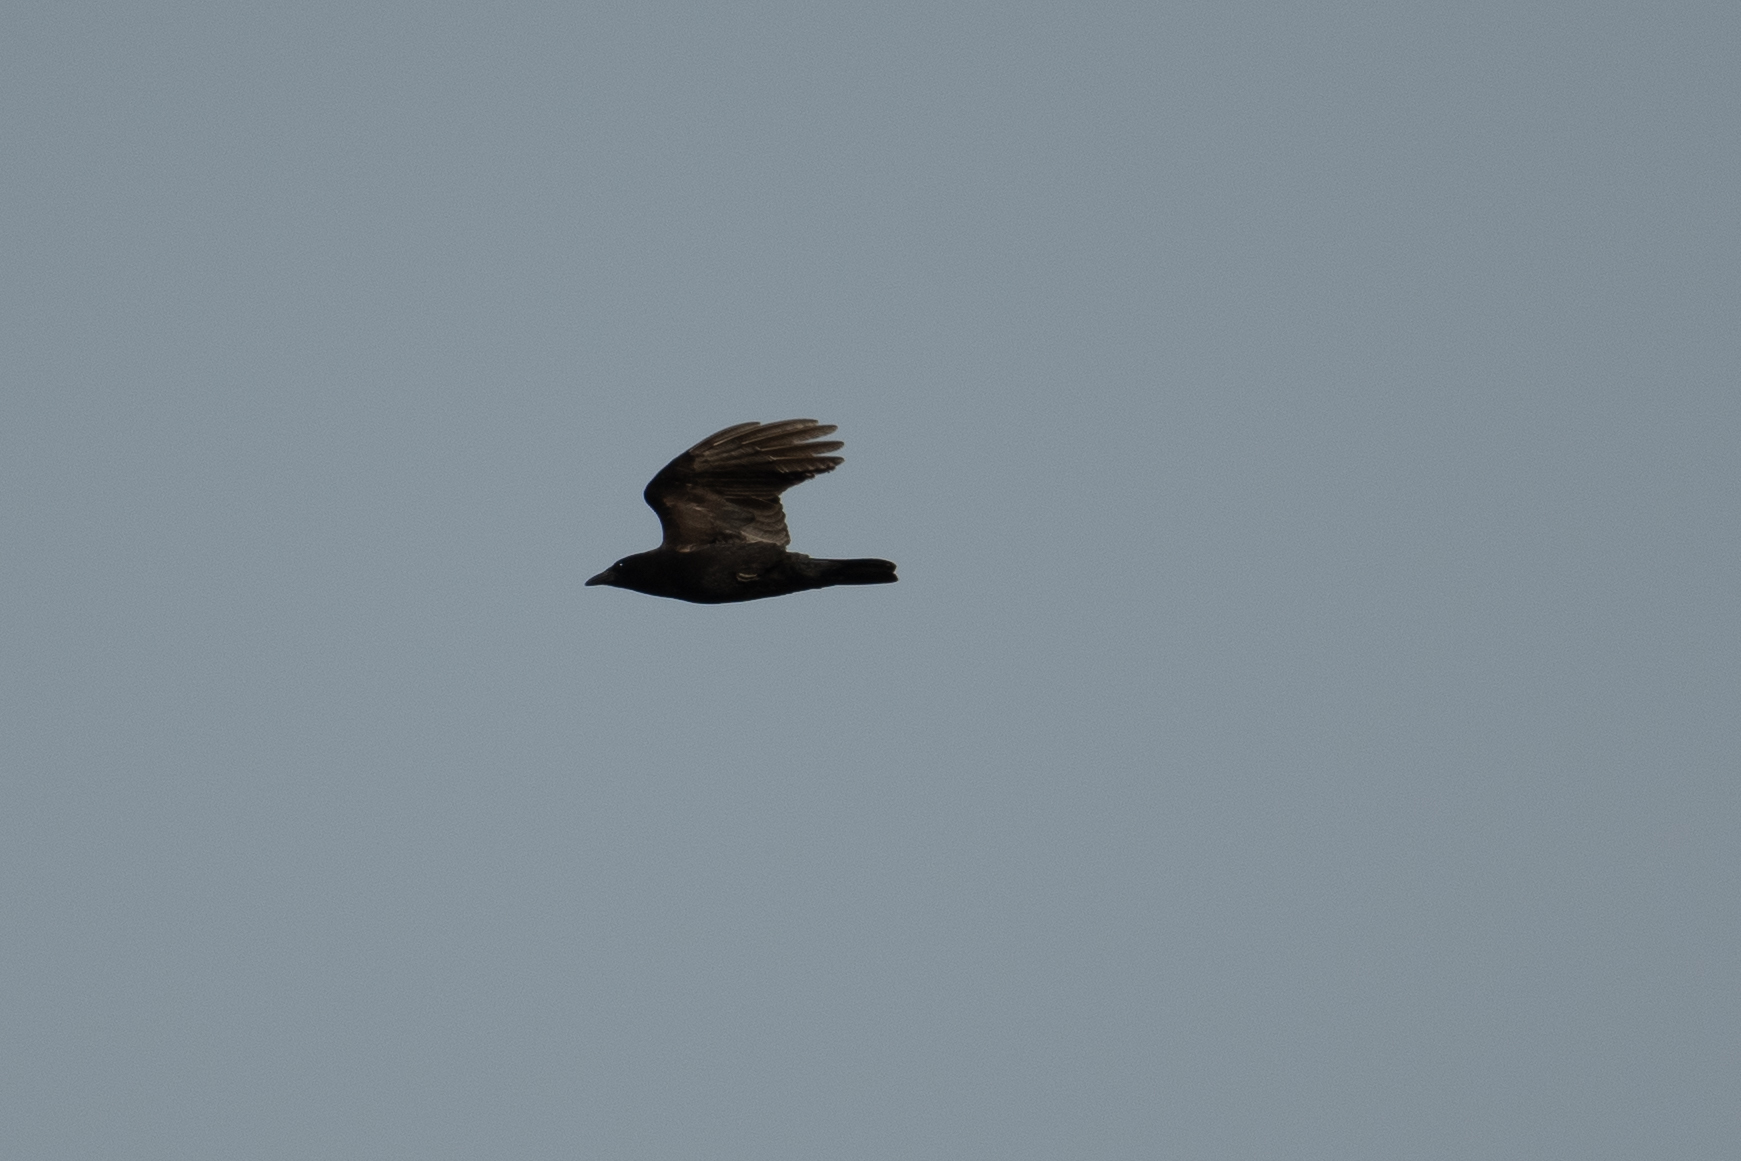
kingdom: Animalia
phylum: Chordata
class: Aves
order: Passeriformes
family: Corvidae
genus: Corvus
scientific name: Corvus brachyrhynchos
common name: American crow
